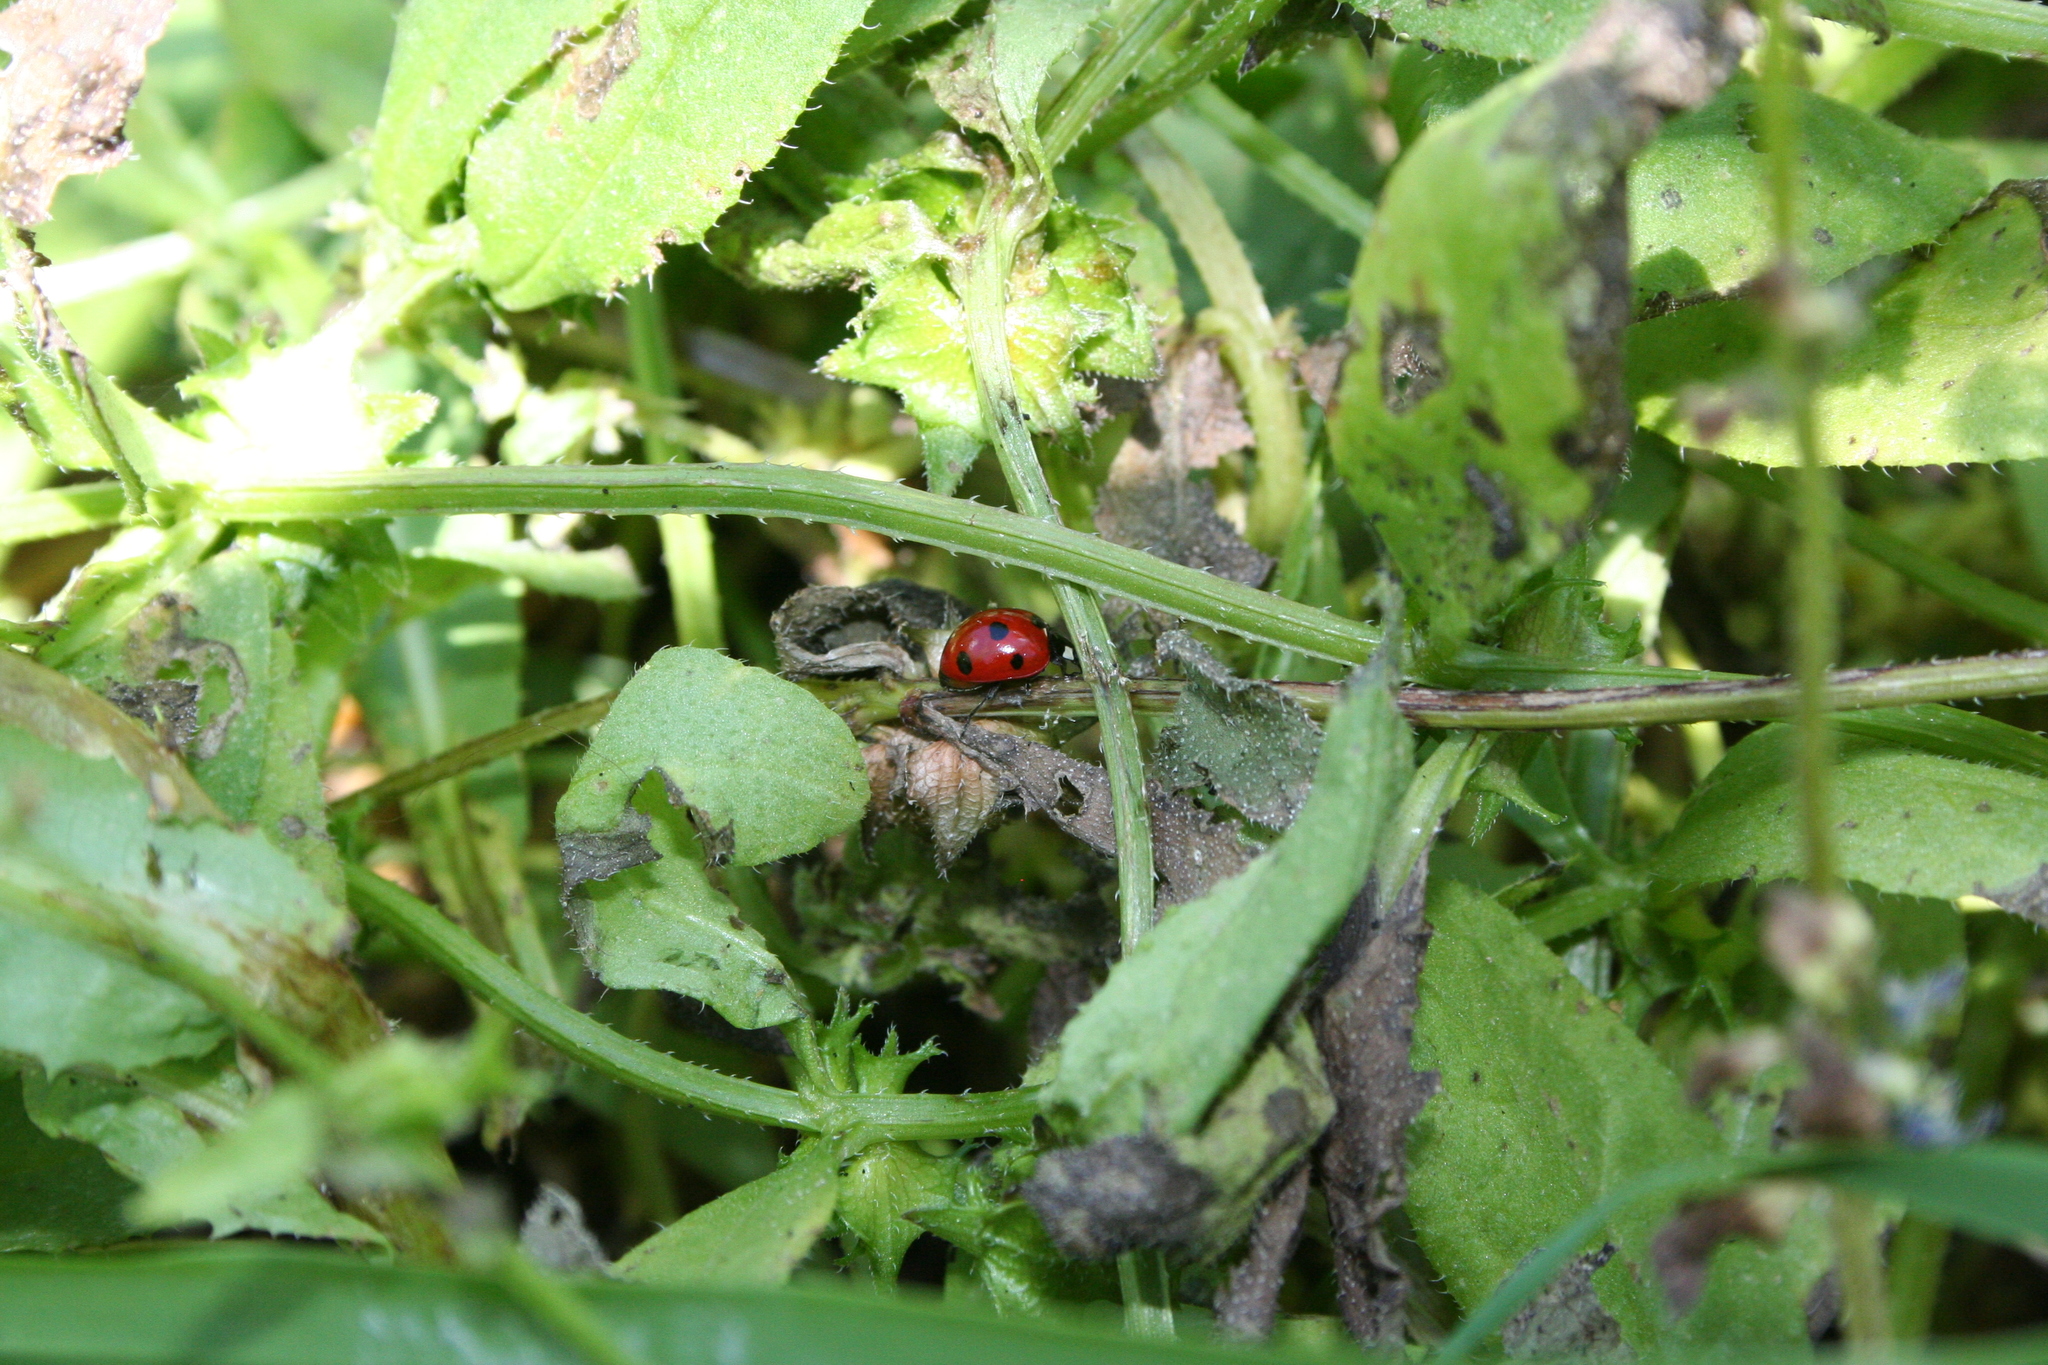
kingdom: Animalia
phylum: Arthropoda
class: Insecta
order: Coleoptera
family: Coccinellidae
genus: Coccinella
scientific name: Coccinella septempunctata
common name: Sevenspotted lady beetle
